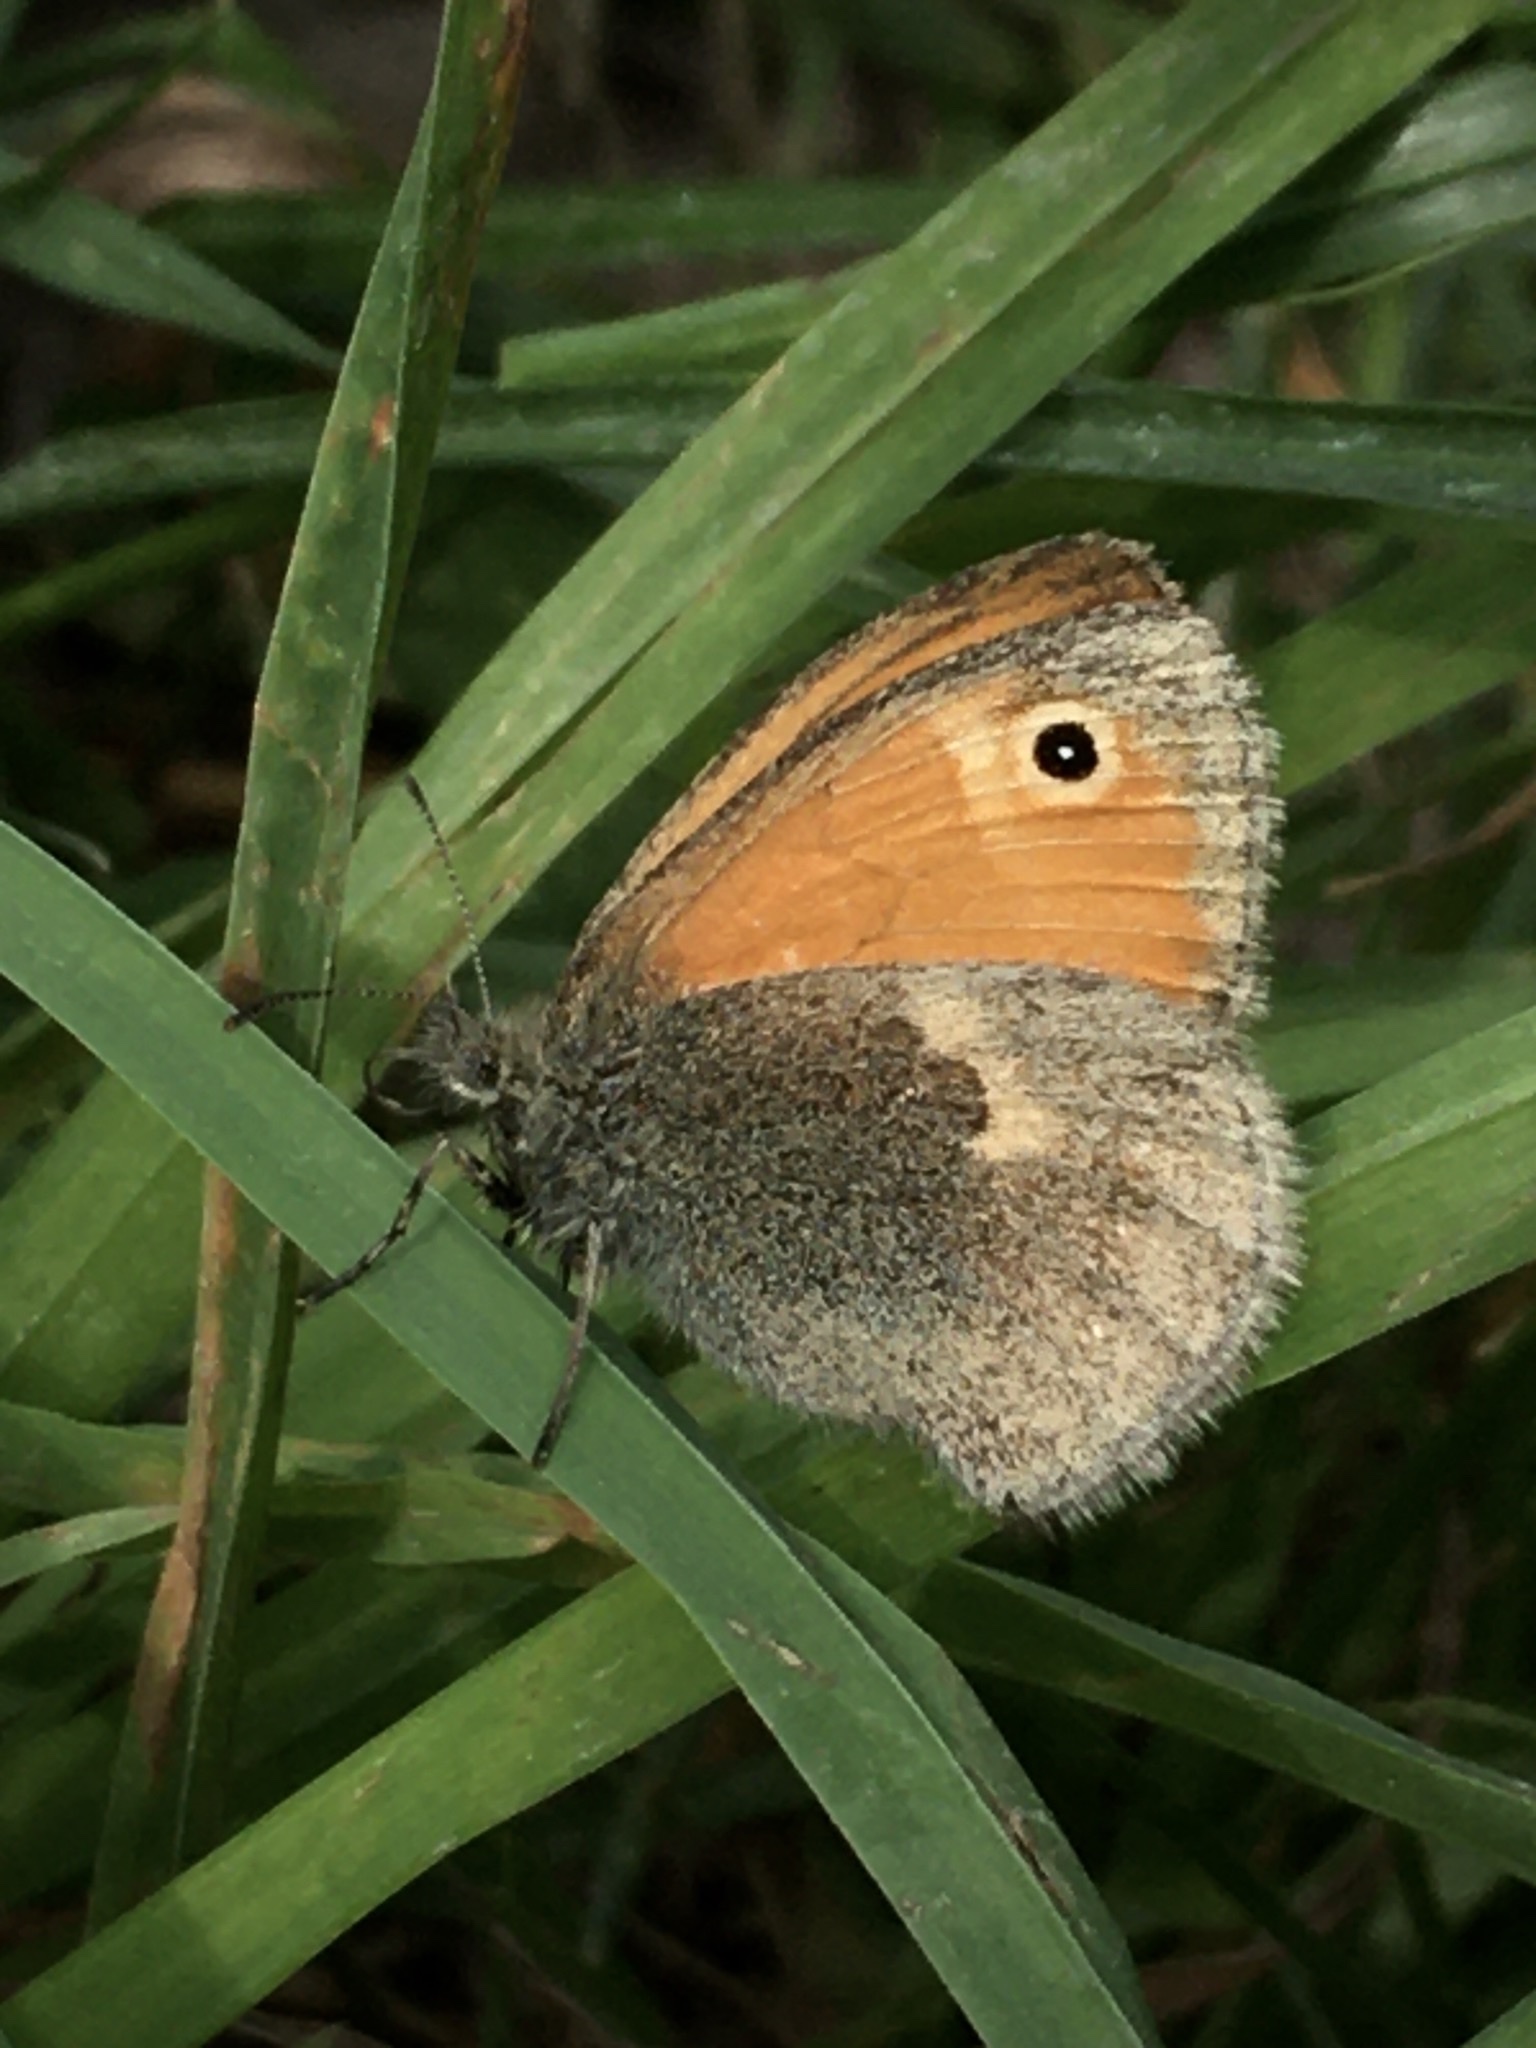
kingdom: Animalia
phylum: Arthropoda
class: Insecta
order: Lepidoptera
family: Nymphalidae
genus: Coenonympha
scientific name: Coenonympha pamphilus
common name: Small heath
